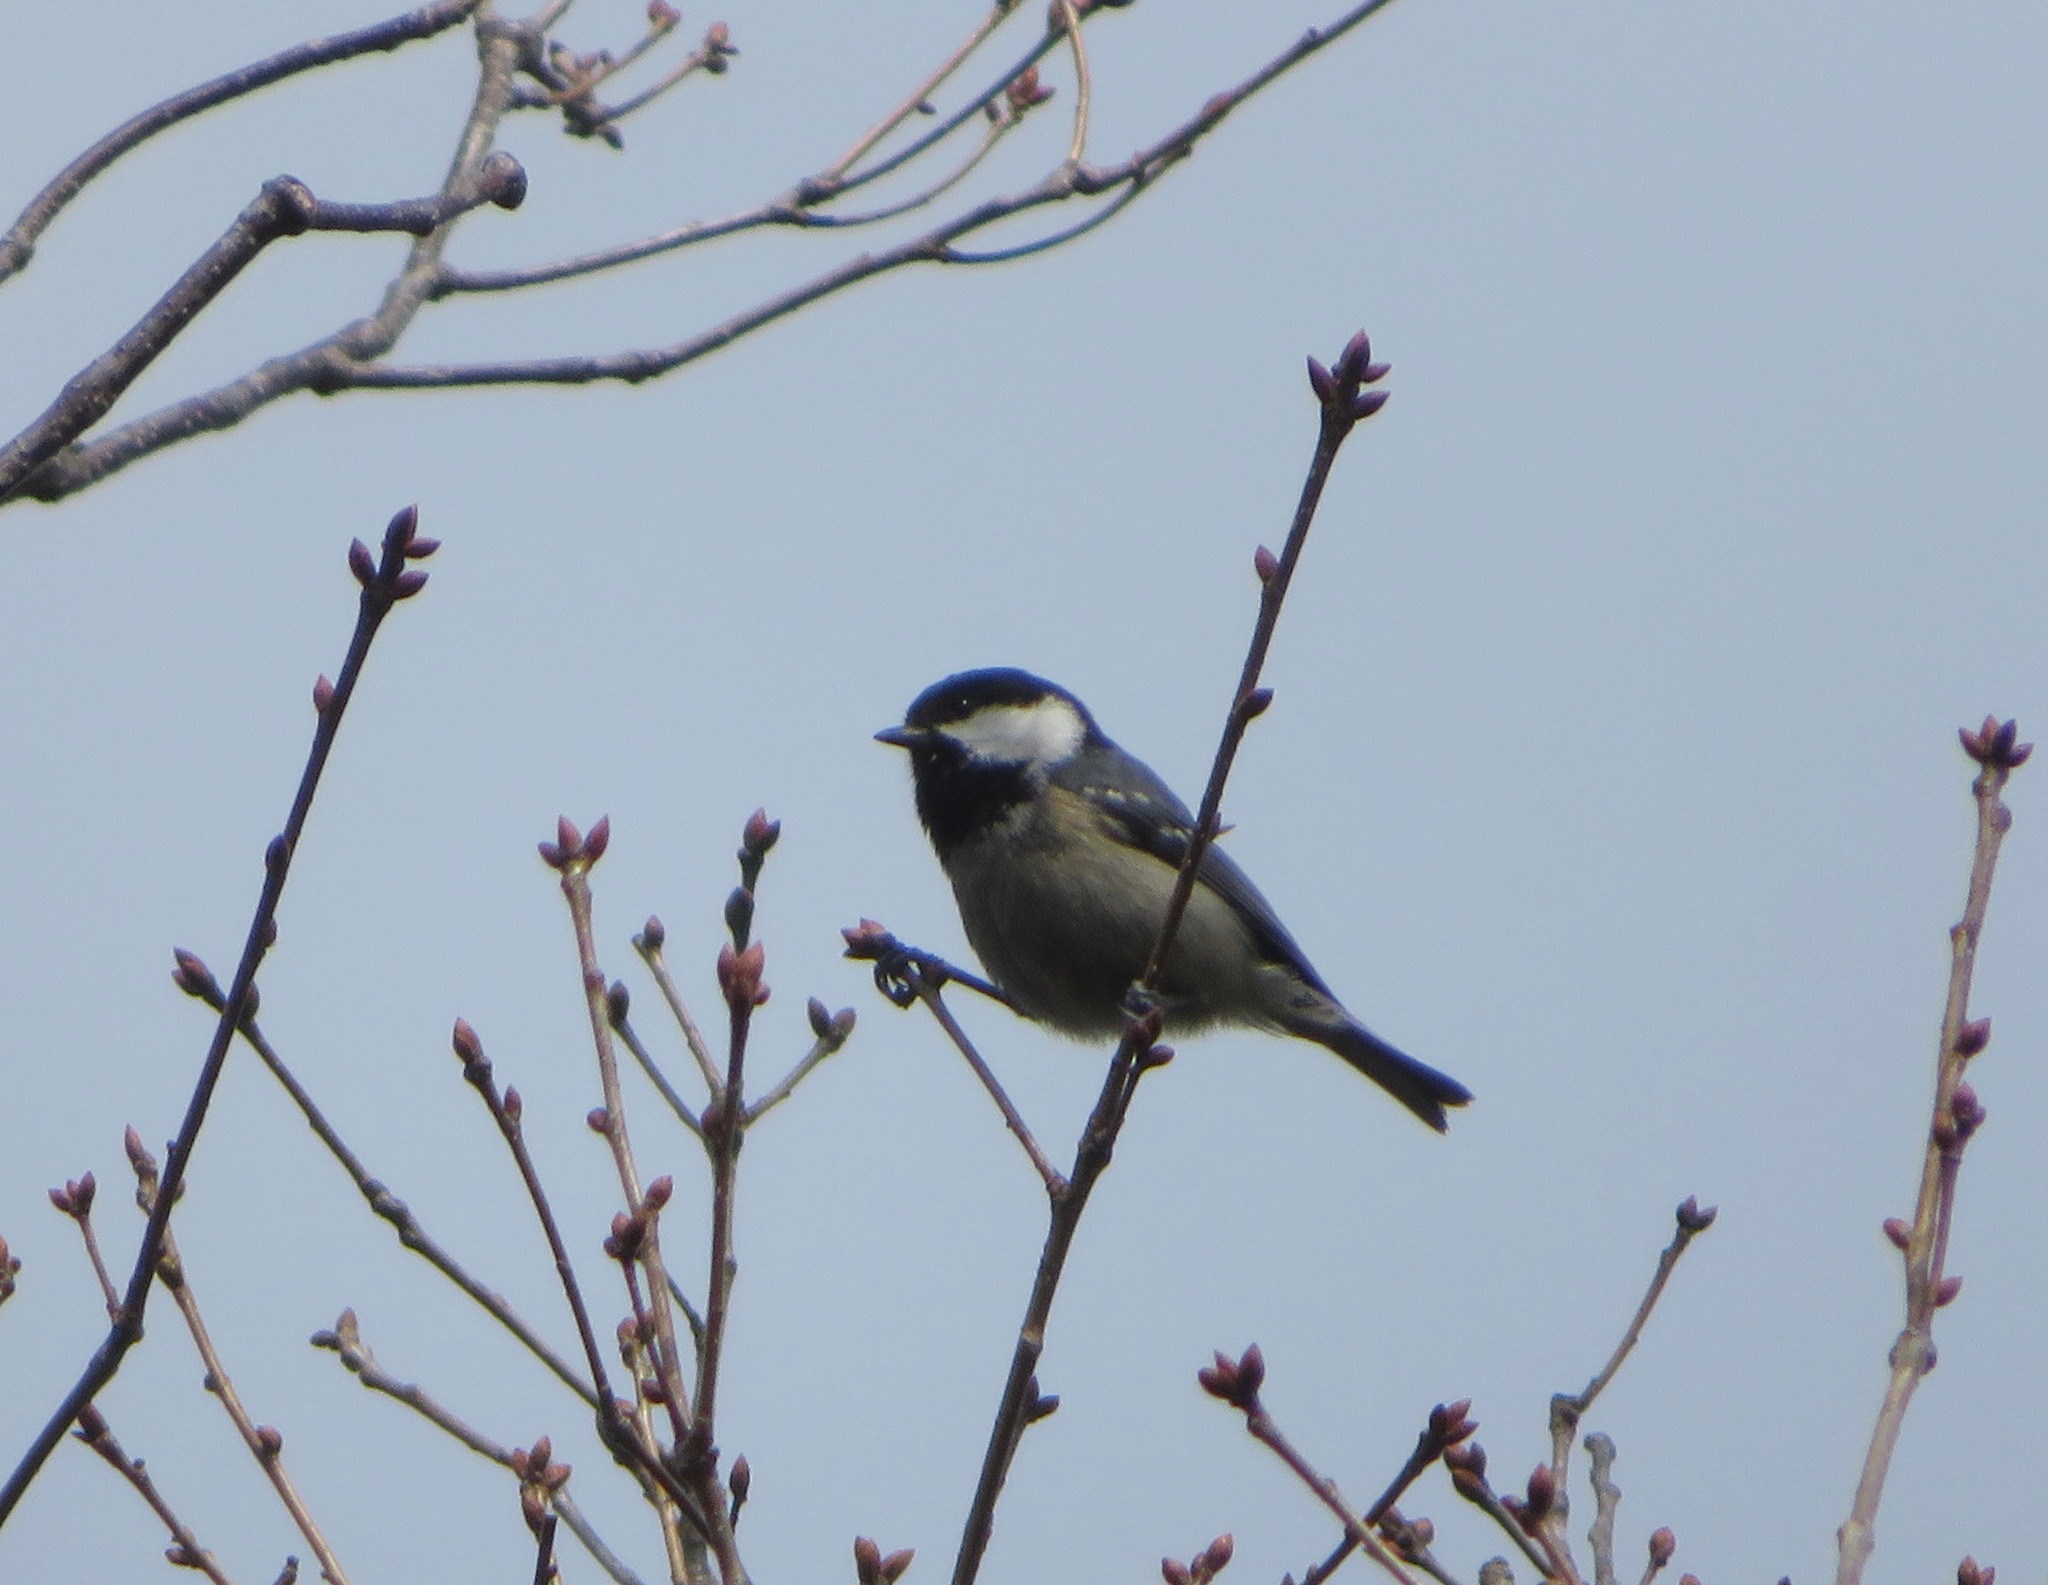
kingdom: Animalia
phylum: Chordata
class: Aves
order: Passeriformes
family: Paridae
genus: Periparus
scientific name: Periparus ater
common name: Coal tit
